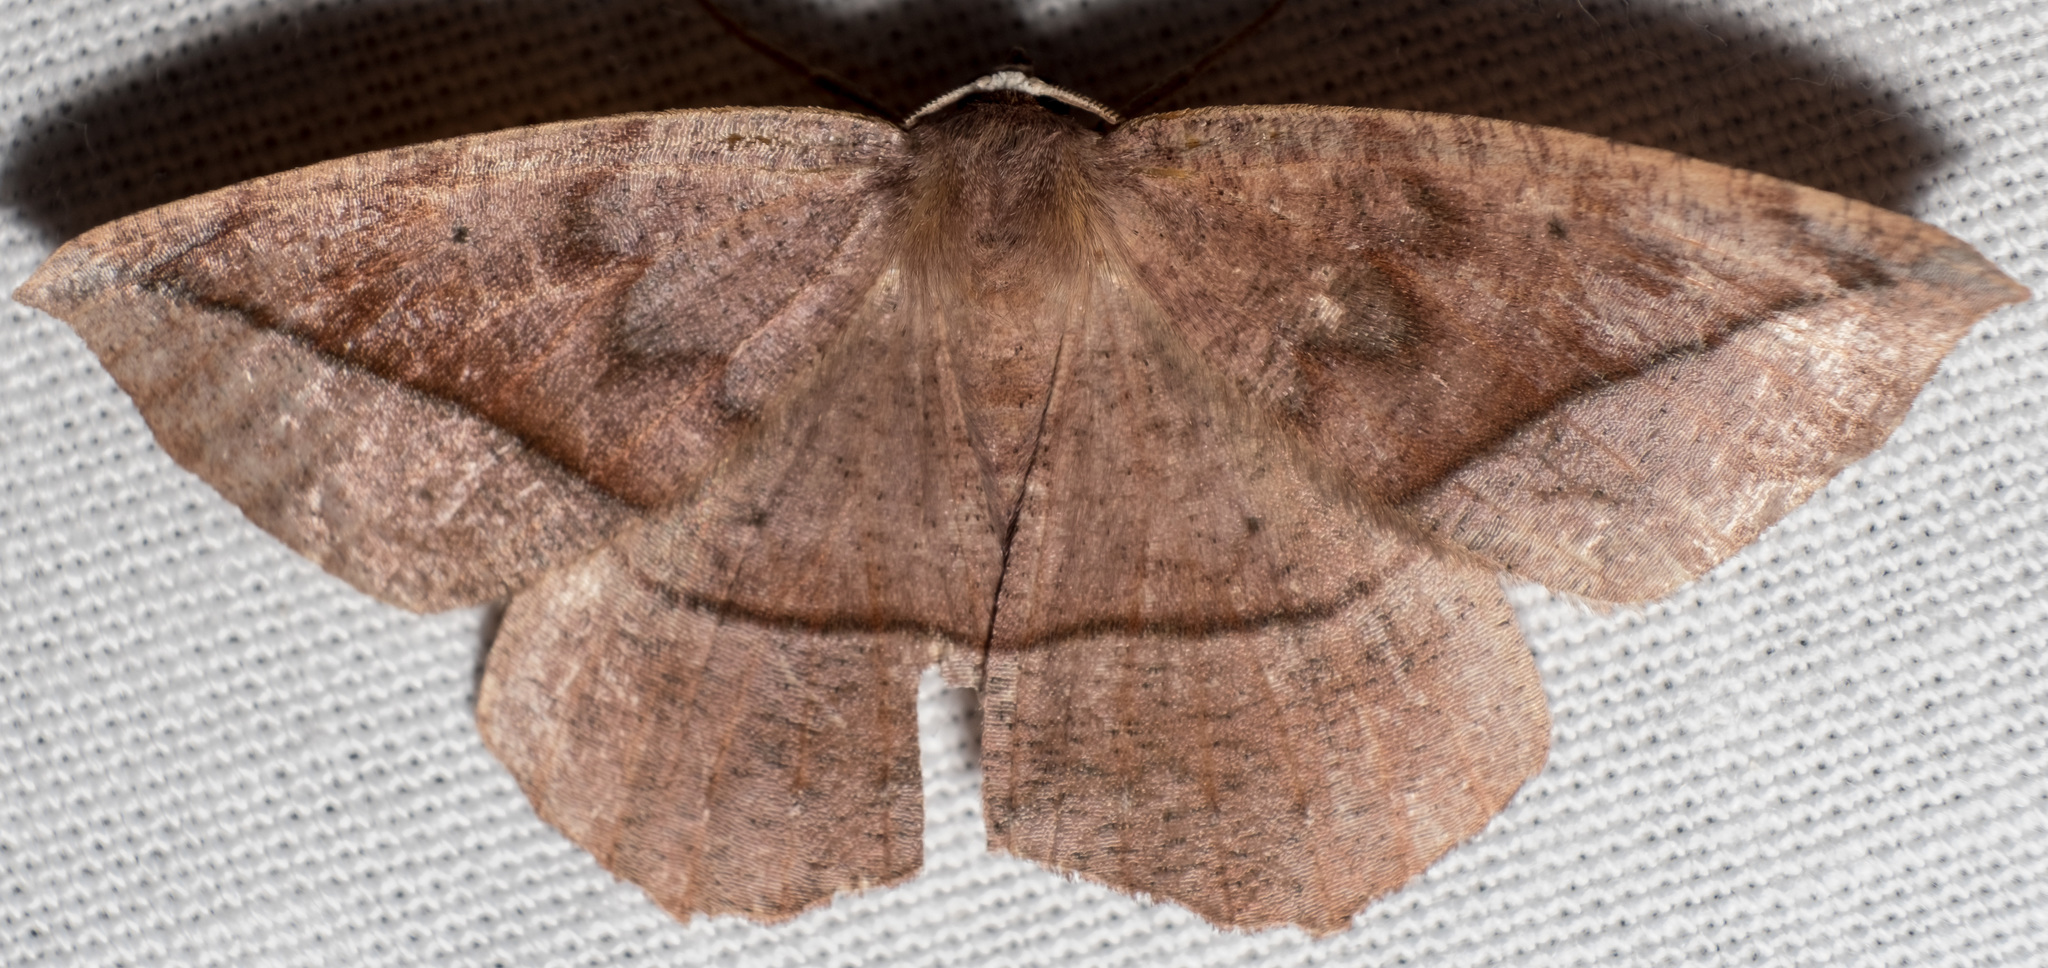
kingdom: Animalia
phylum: Arthropoda
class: Insecta
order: Lepidoptera
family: Geometridae
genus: Eutrapela
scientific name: Eutrapela clemataria
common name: Curved-toothed geometer
